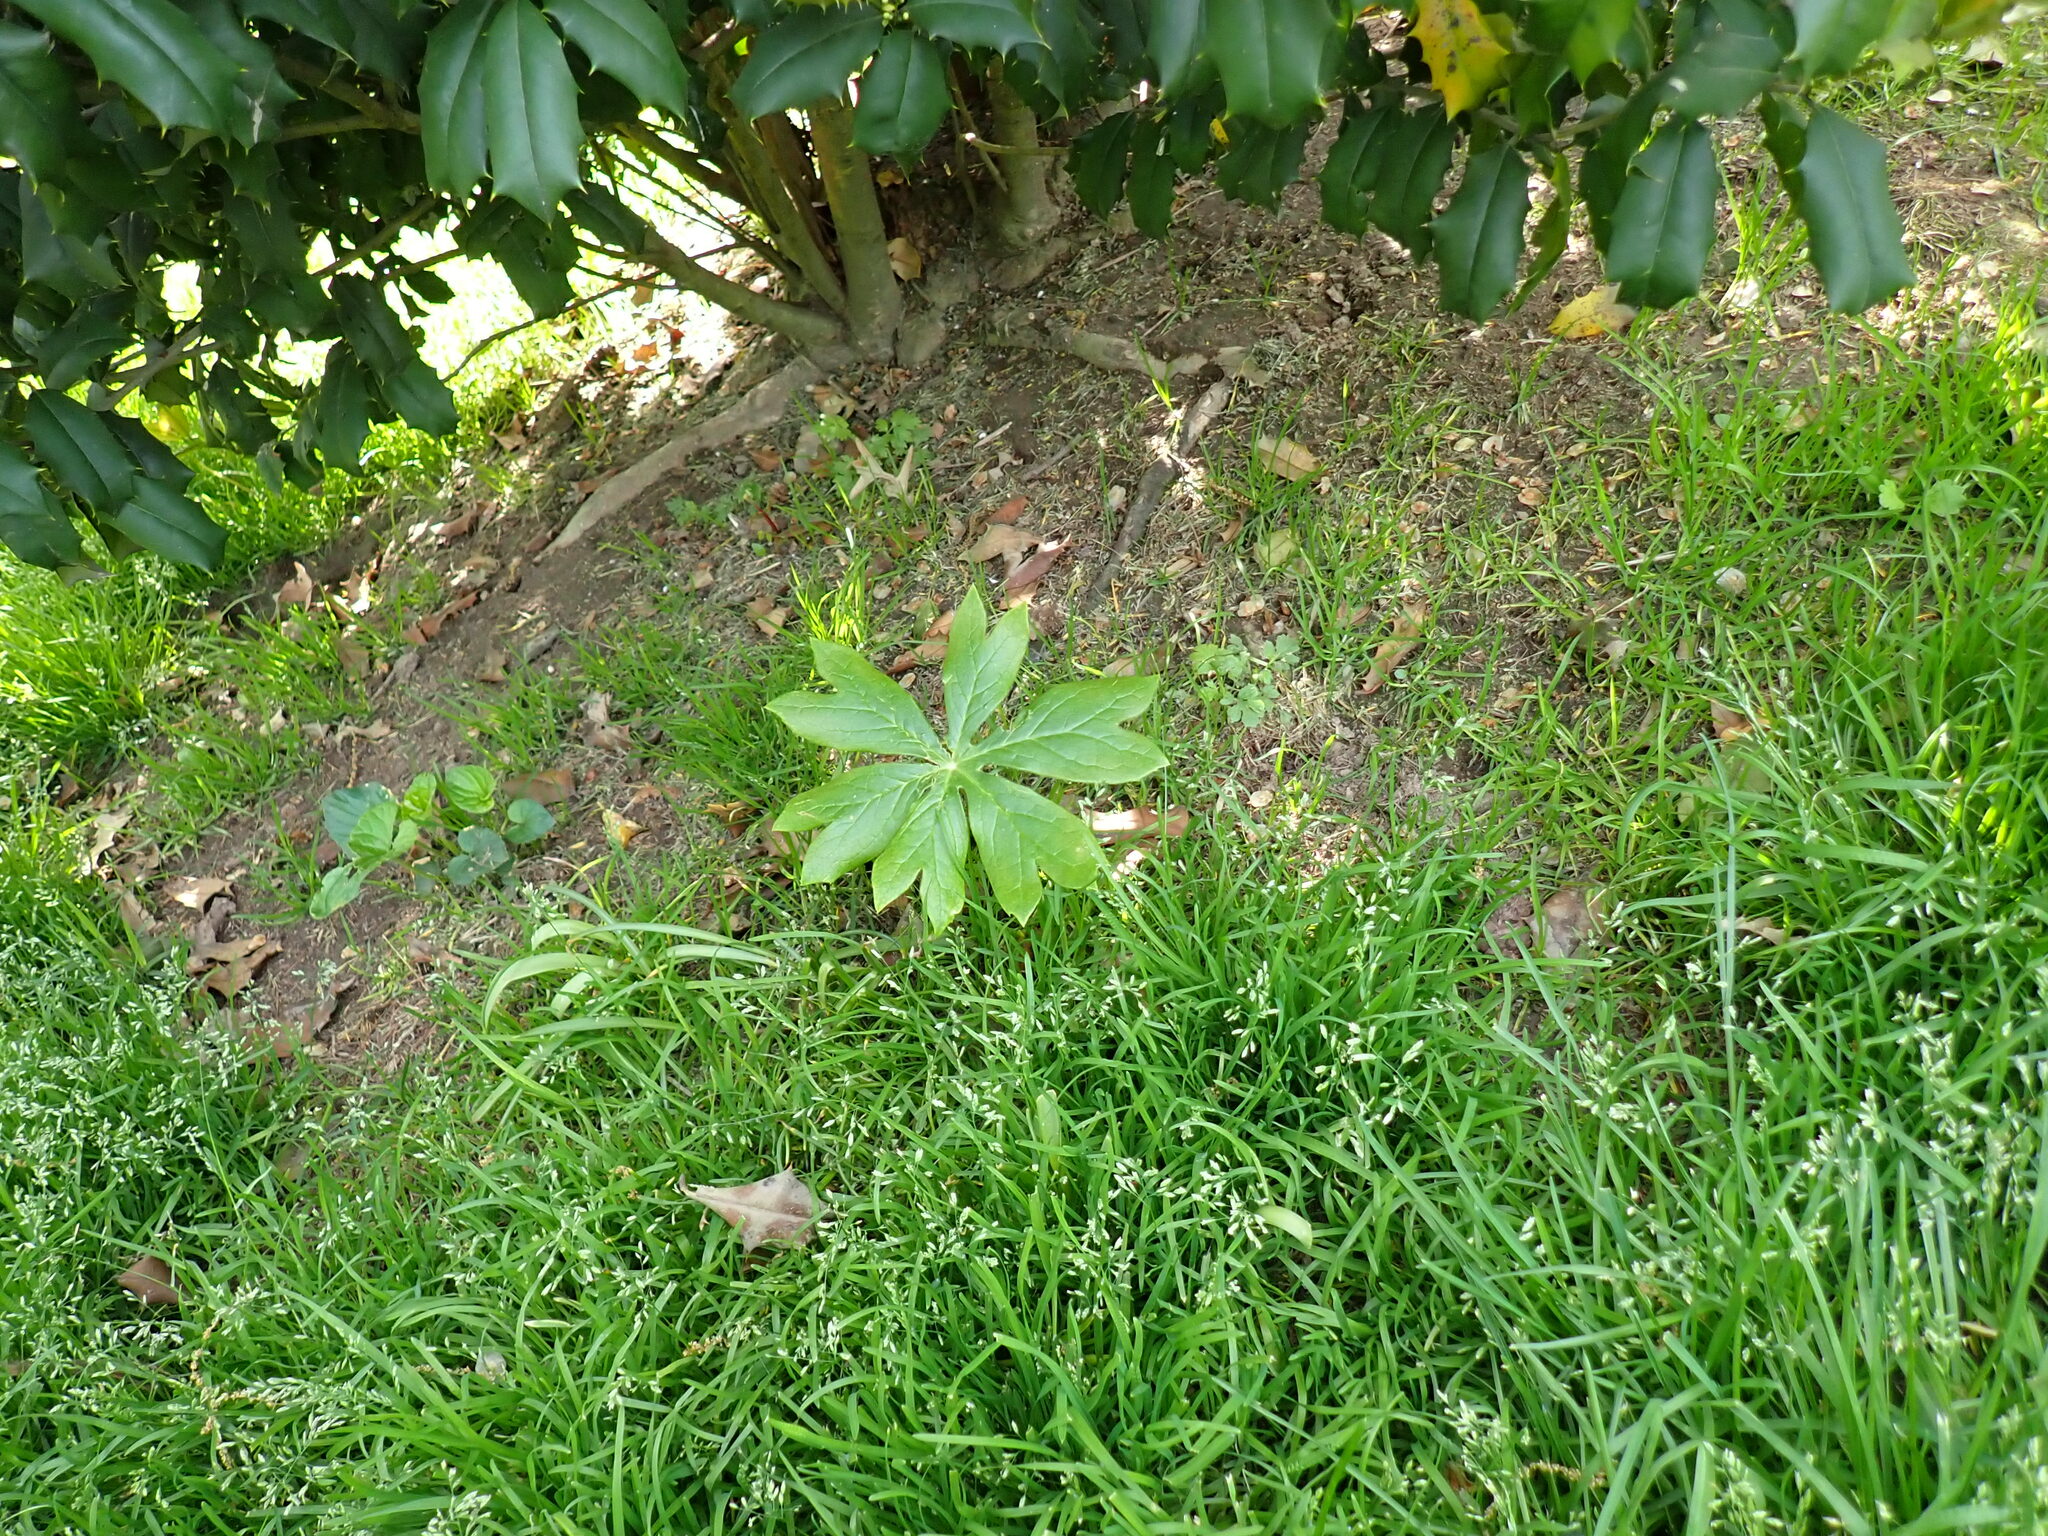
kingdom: Plantae
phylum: Tracheophyta
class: Magnoliopsida
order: Ranunculales
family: Berberidaceae
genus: Podophyllum
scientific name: Podophyllum peltatum
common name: Wild mandrake
